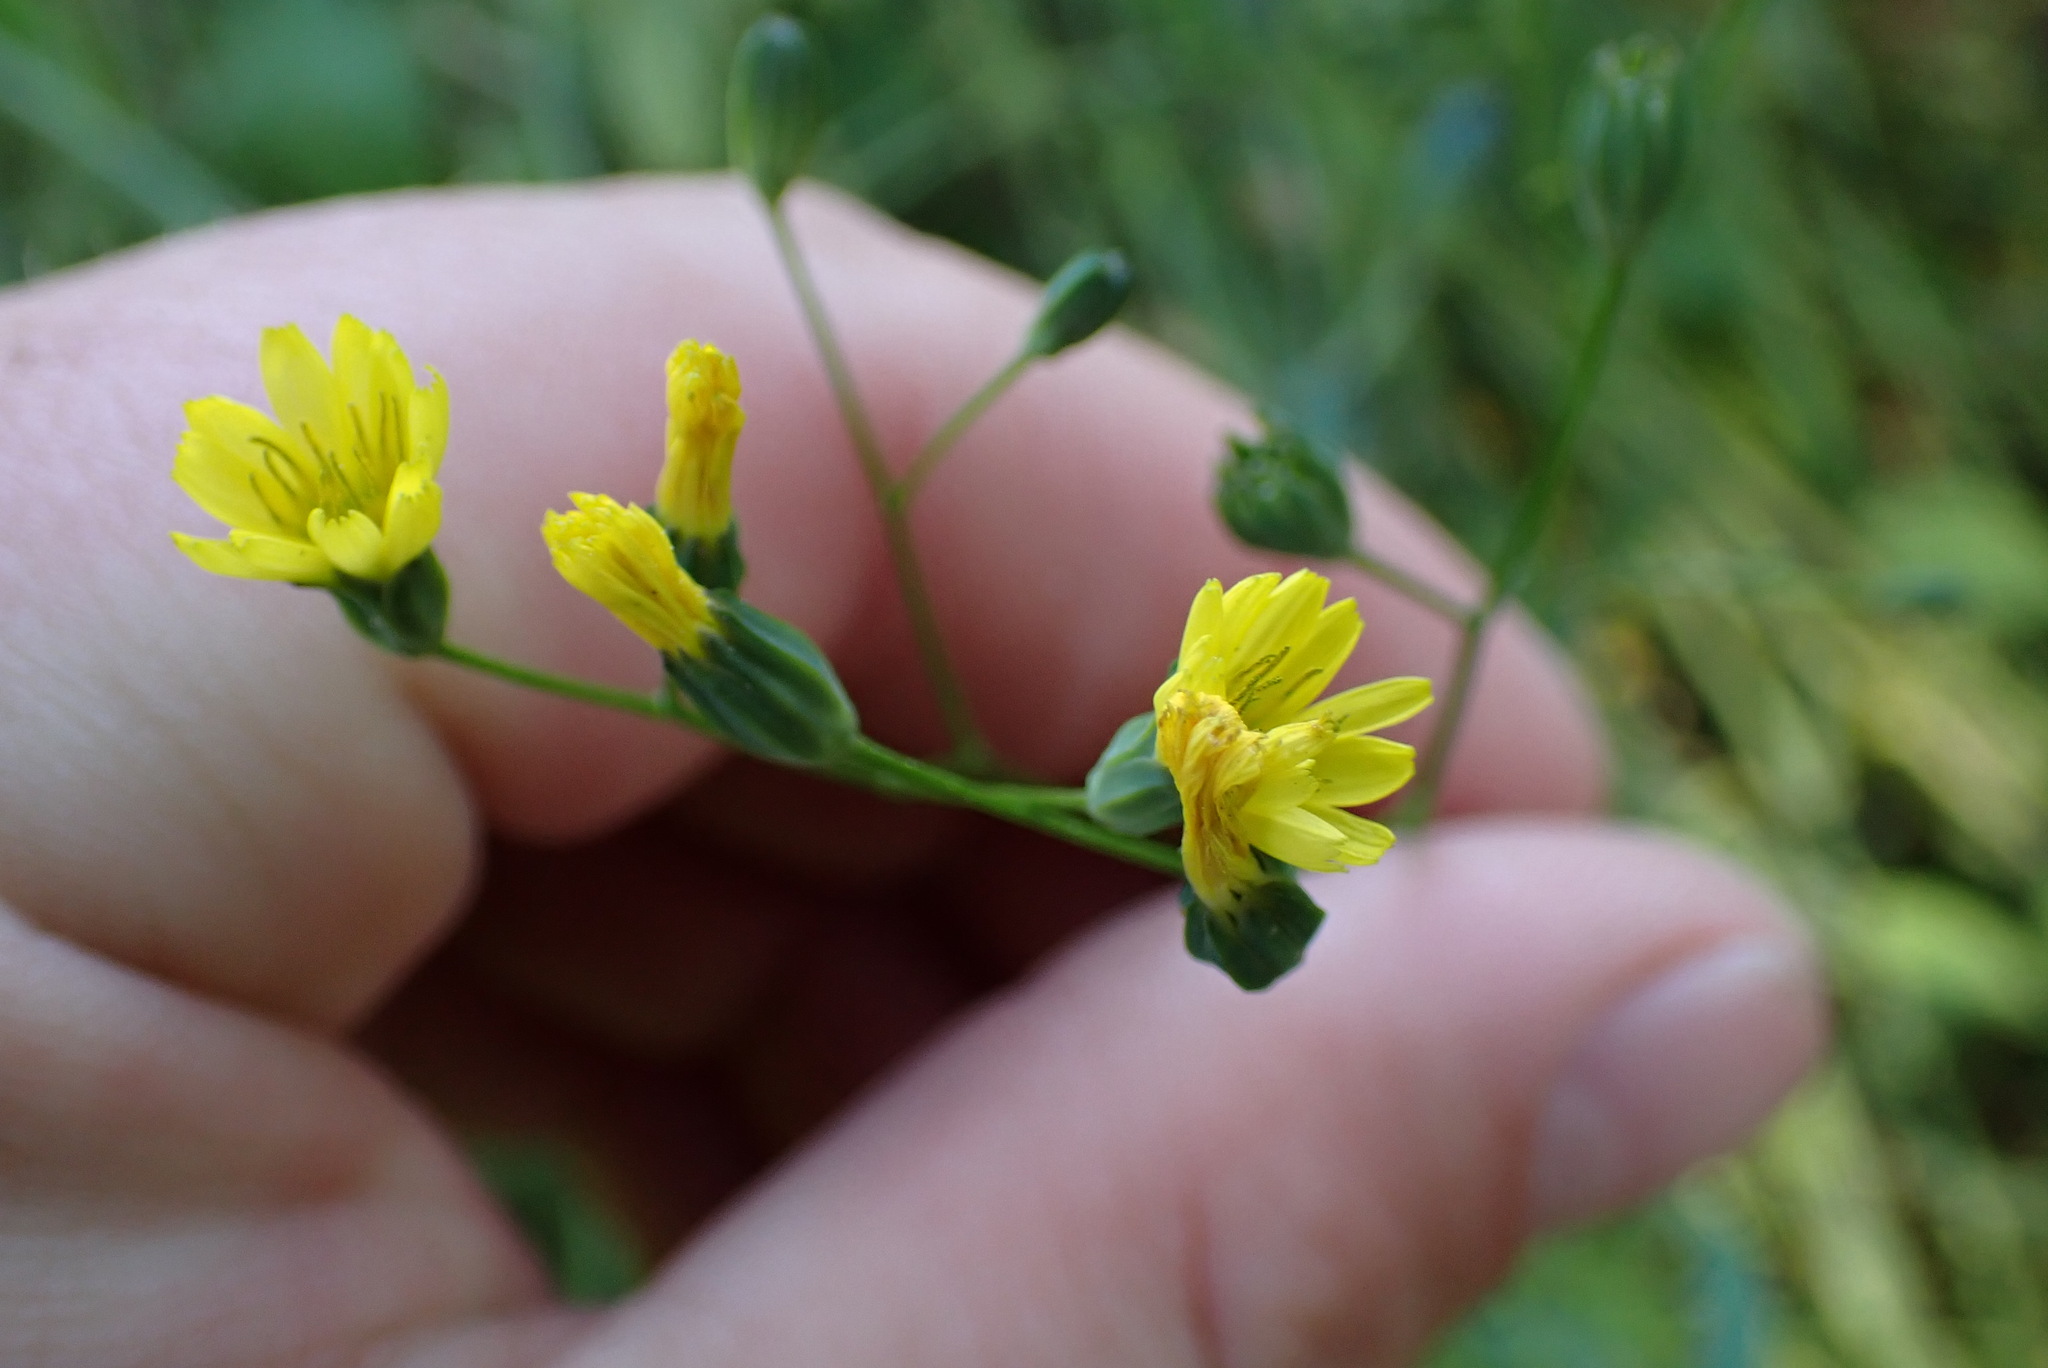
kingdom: Plantae
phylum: Tracheophyta
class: Magnoliopsida
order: Asterales
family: Asteraceae
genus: Lapsana
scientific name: Lapsana communis
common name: Nipplewort
